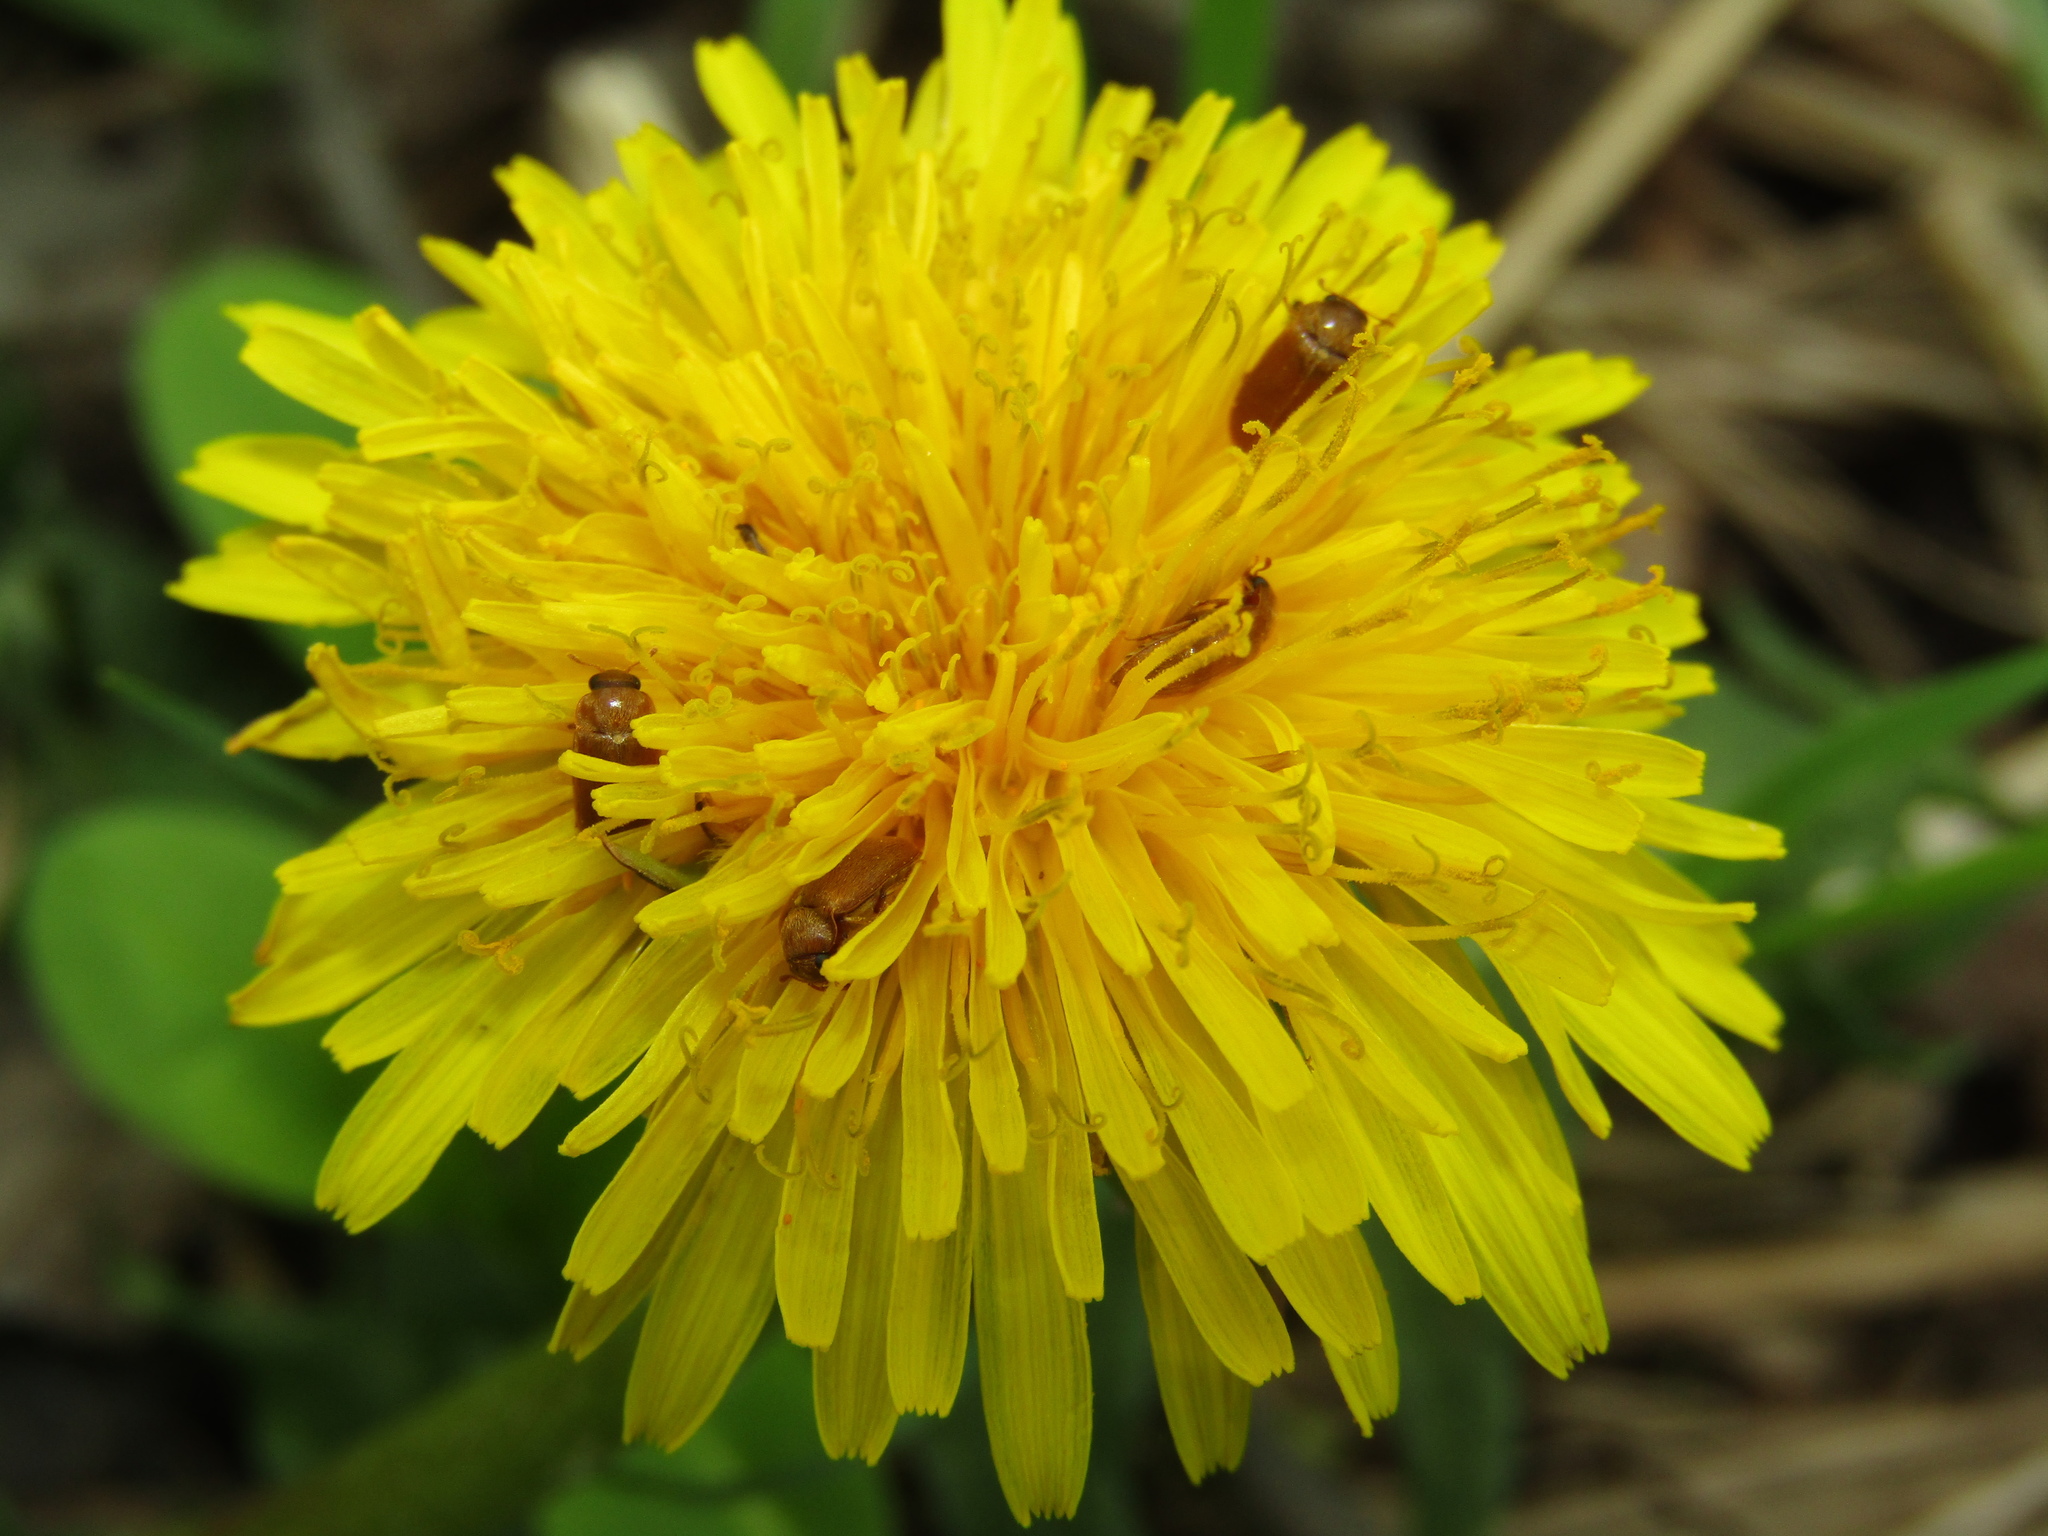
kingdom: Plantae
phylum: Tracheophyta
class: Magnoliopsida
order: Asterales
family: Asteraceae
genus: Taraxacum
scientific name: Taraxacum officinale
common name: Common dandelion
